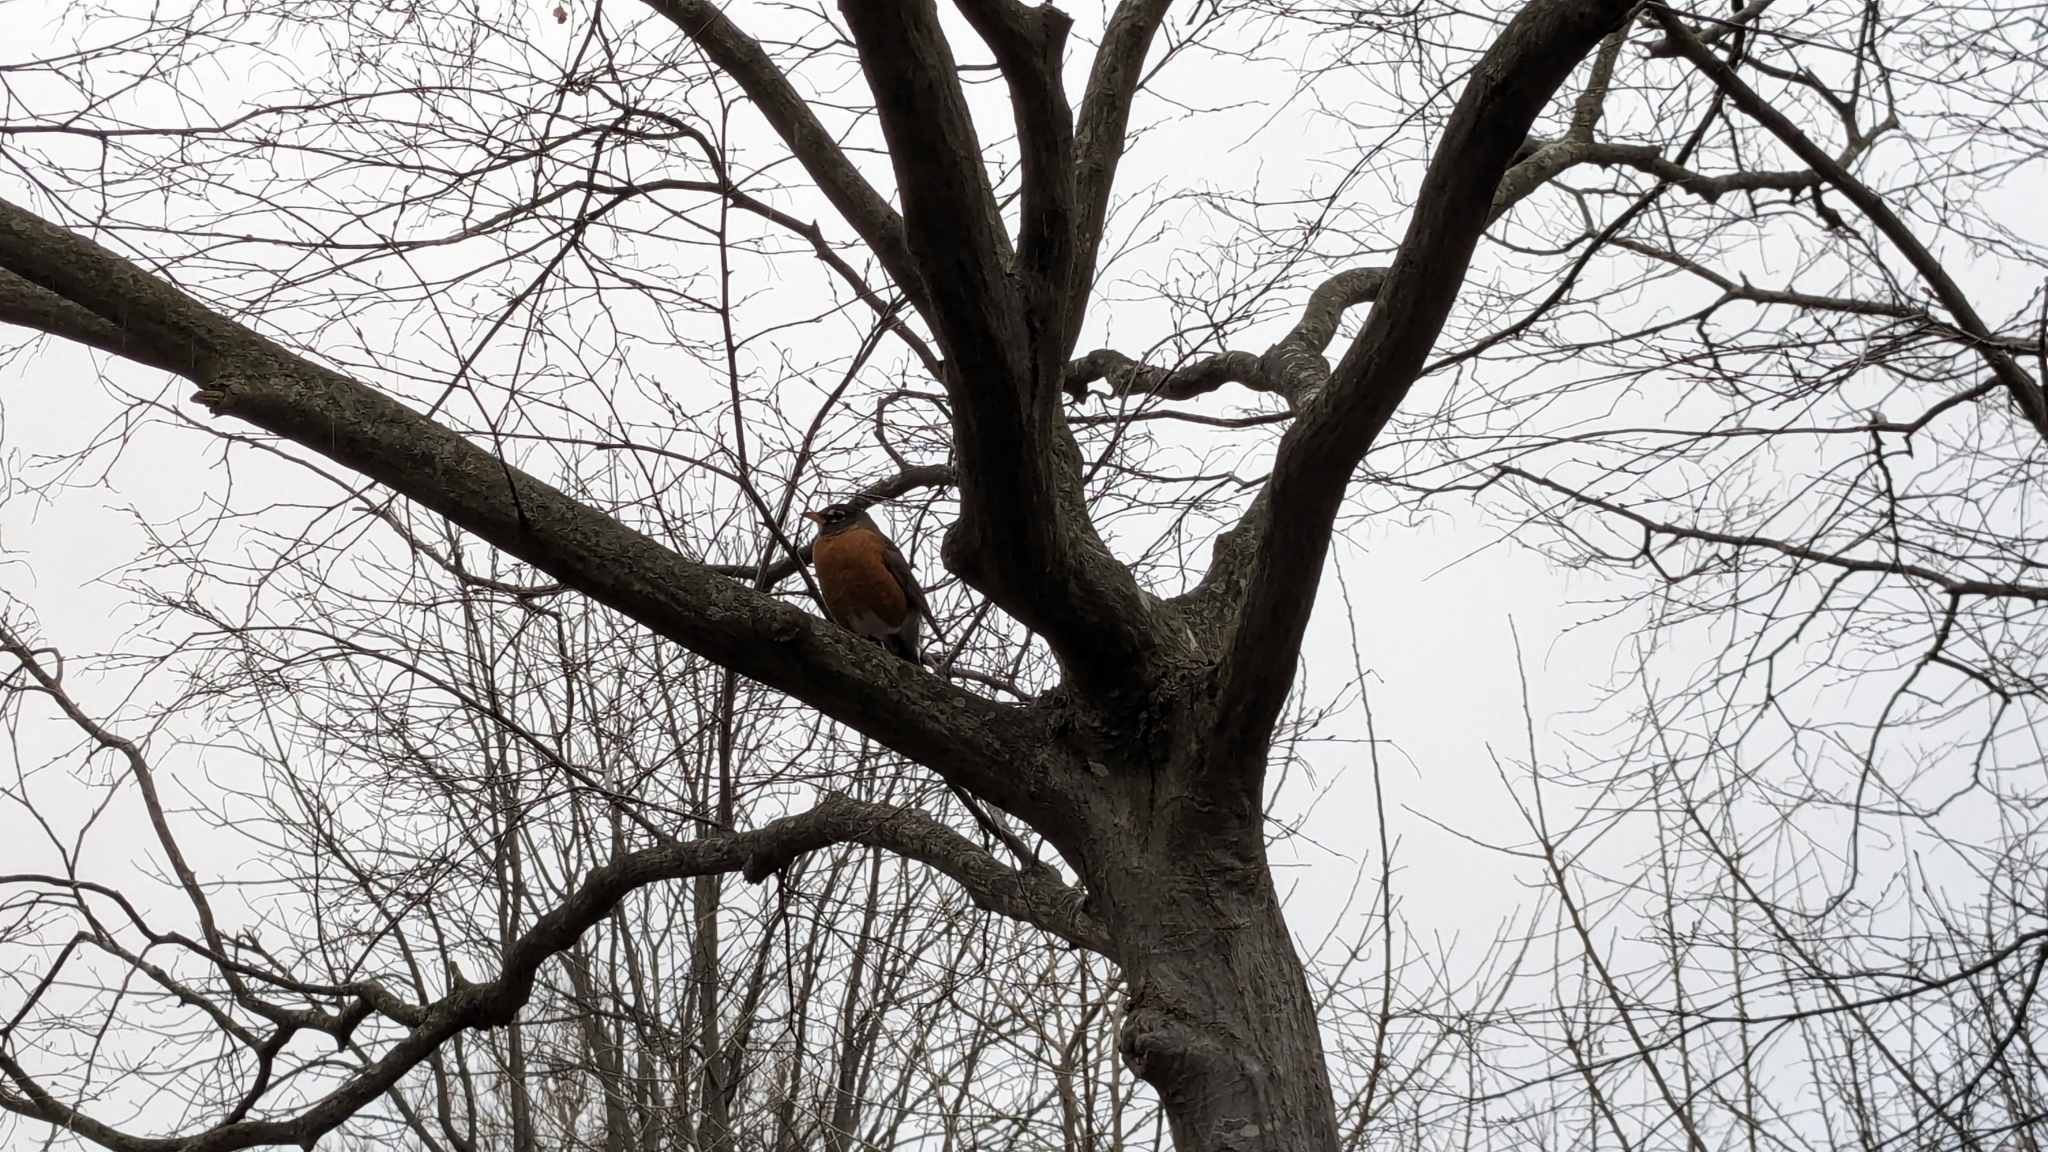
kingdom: Animalia
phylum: Chordata
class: Aves
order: Passeriformes
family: Turdidae
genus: Turdus
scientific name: Turdus migratorius
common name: American robin
